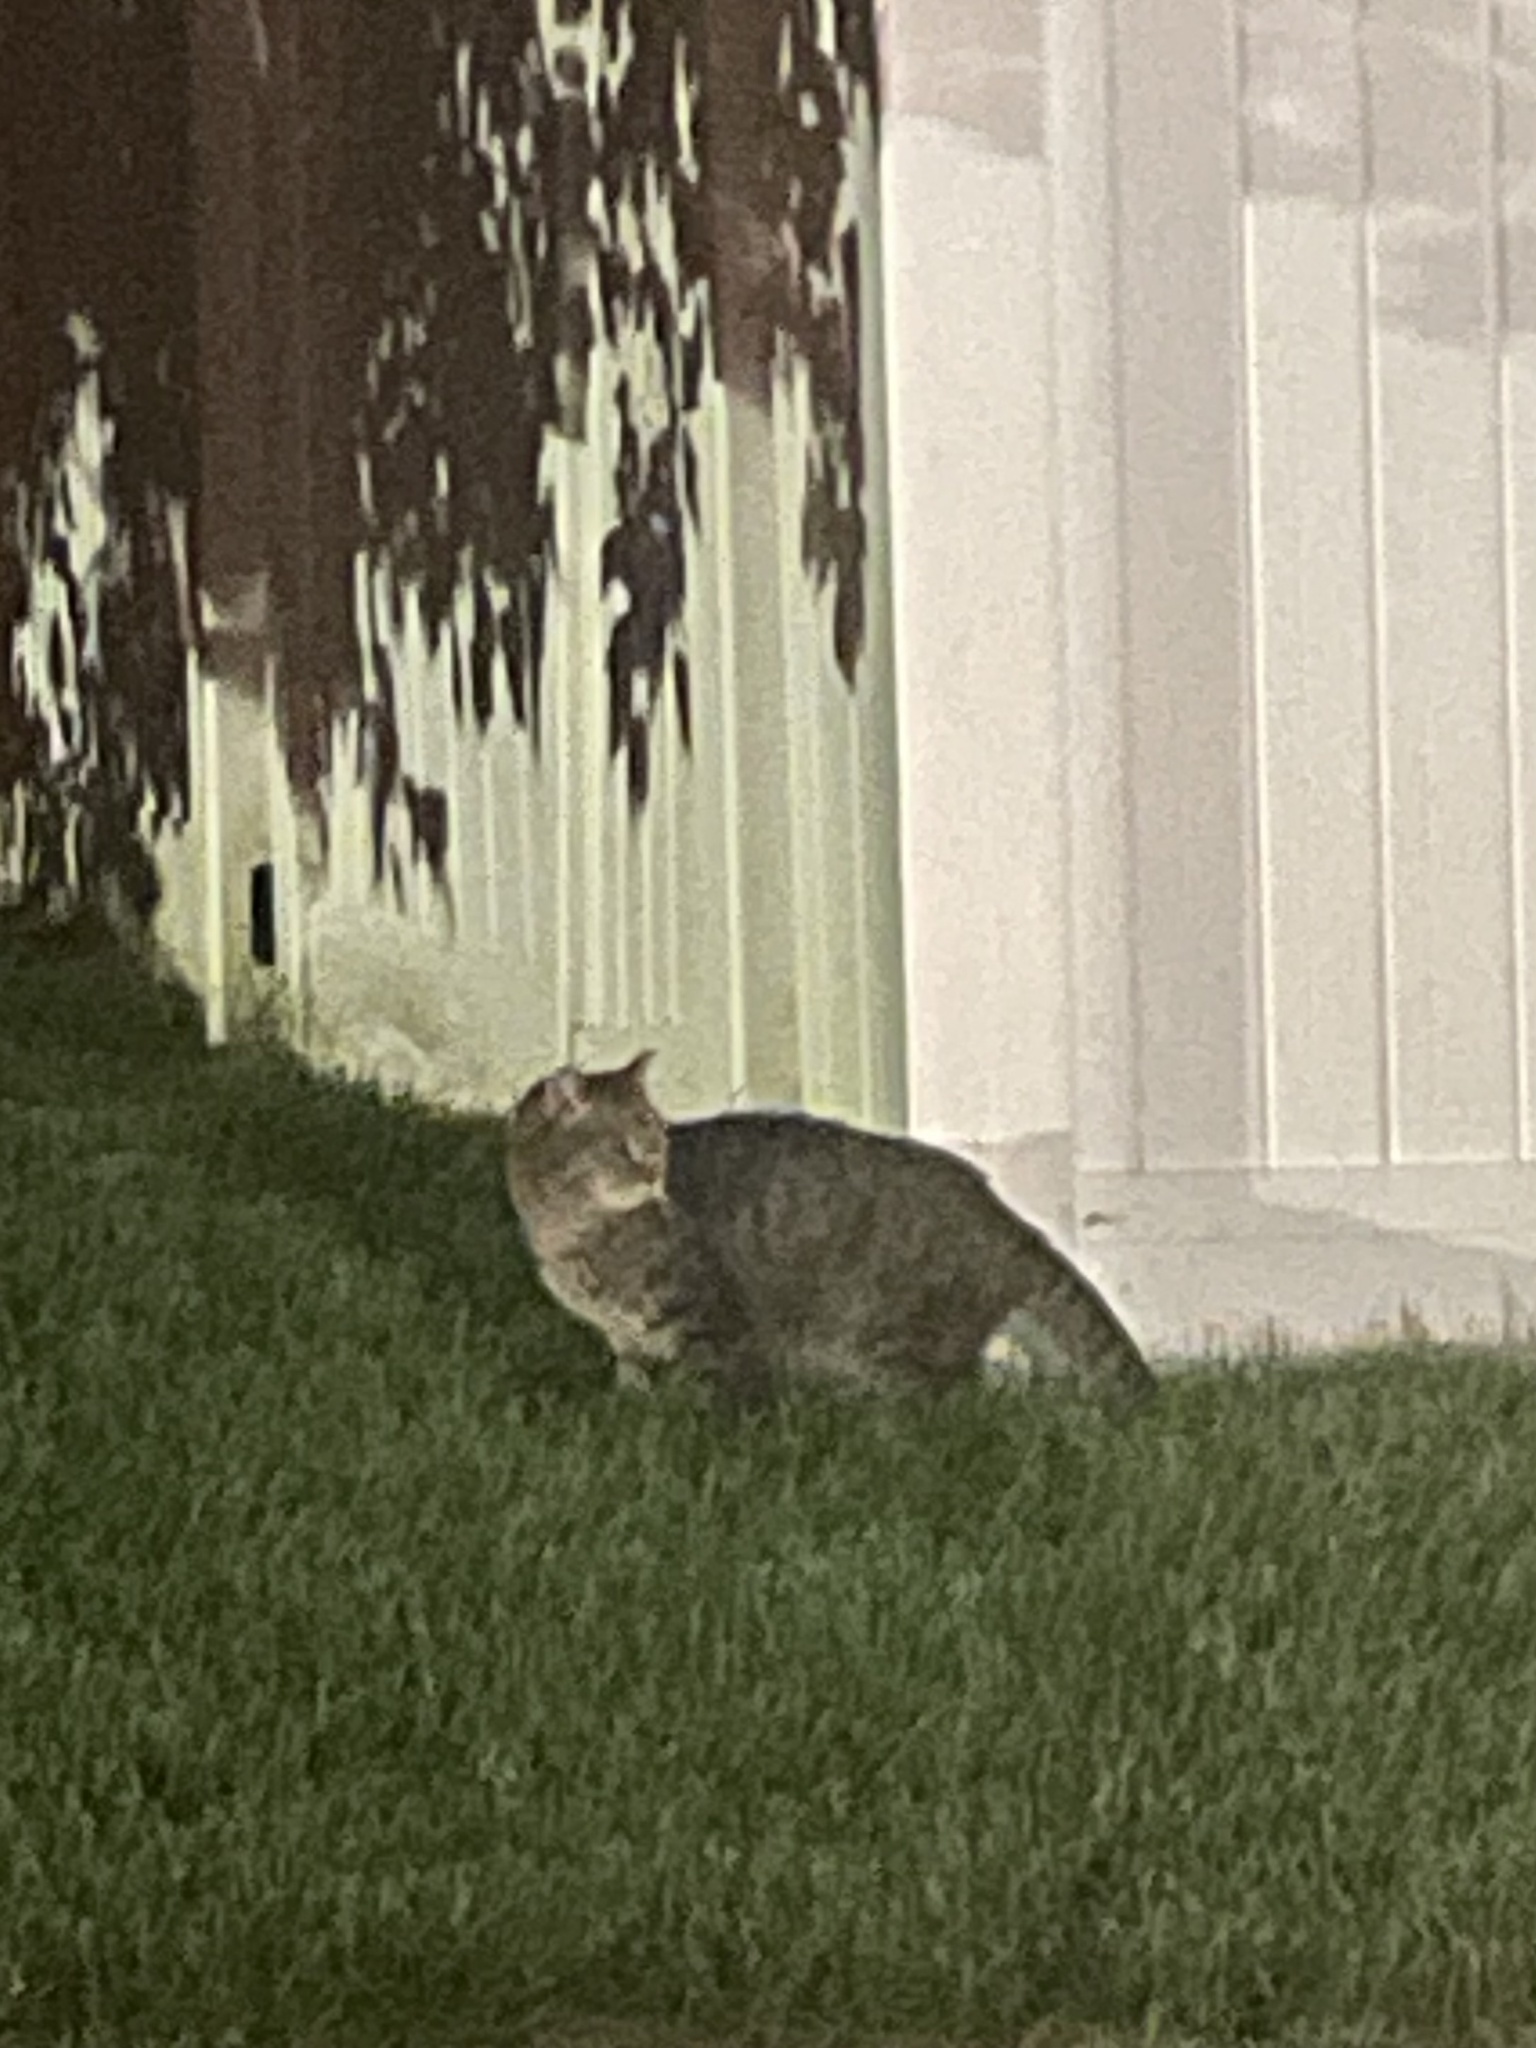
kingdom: Animalia
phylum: Chordata
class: Mammalia
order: Carnivora
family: Felidae
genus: Felis
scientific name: Felis catus
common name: Domestic cat
